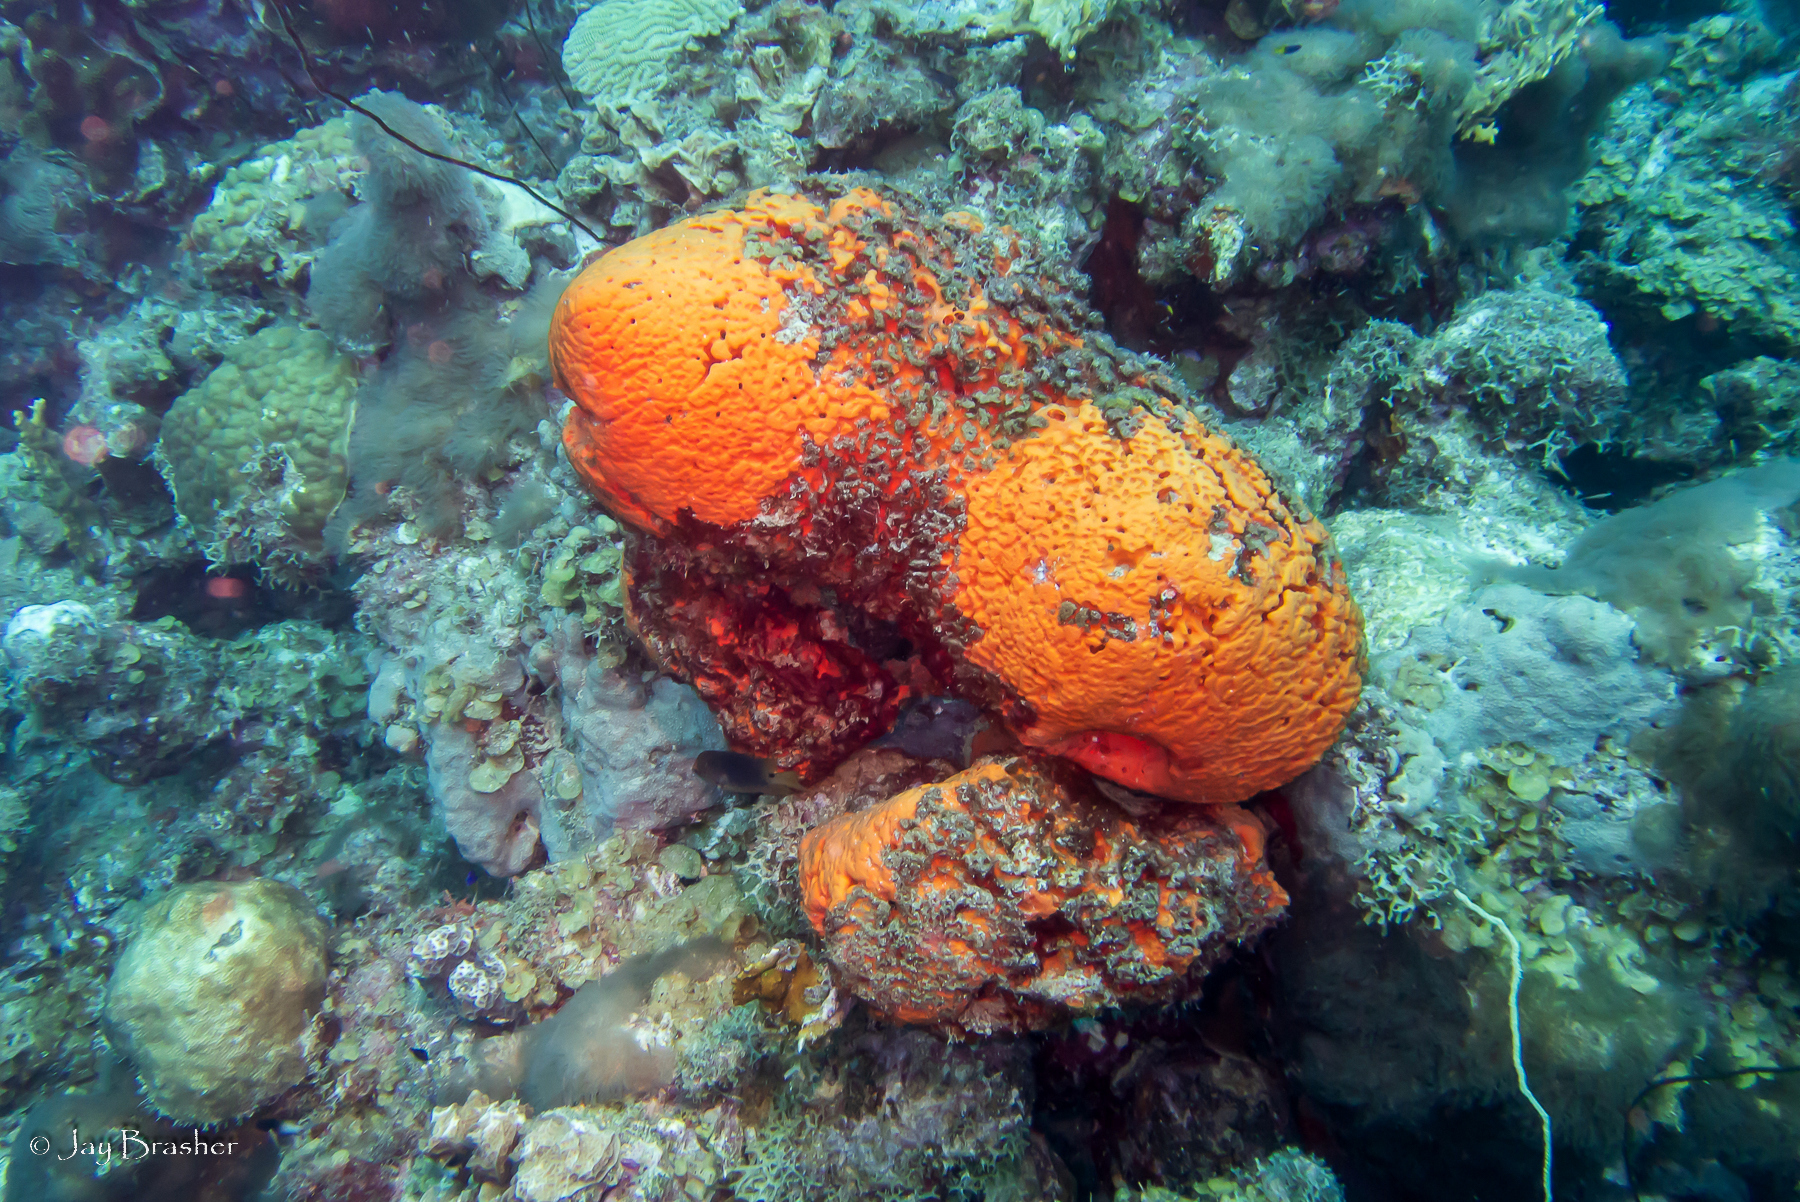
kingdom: Animalia
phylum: Porifera
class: Demospongiae
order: Agelasida
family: Agelasidae
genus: Agelas
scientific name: Agelas clathrodes
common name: Orange elephant ear sponge
